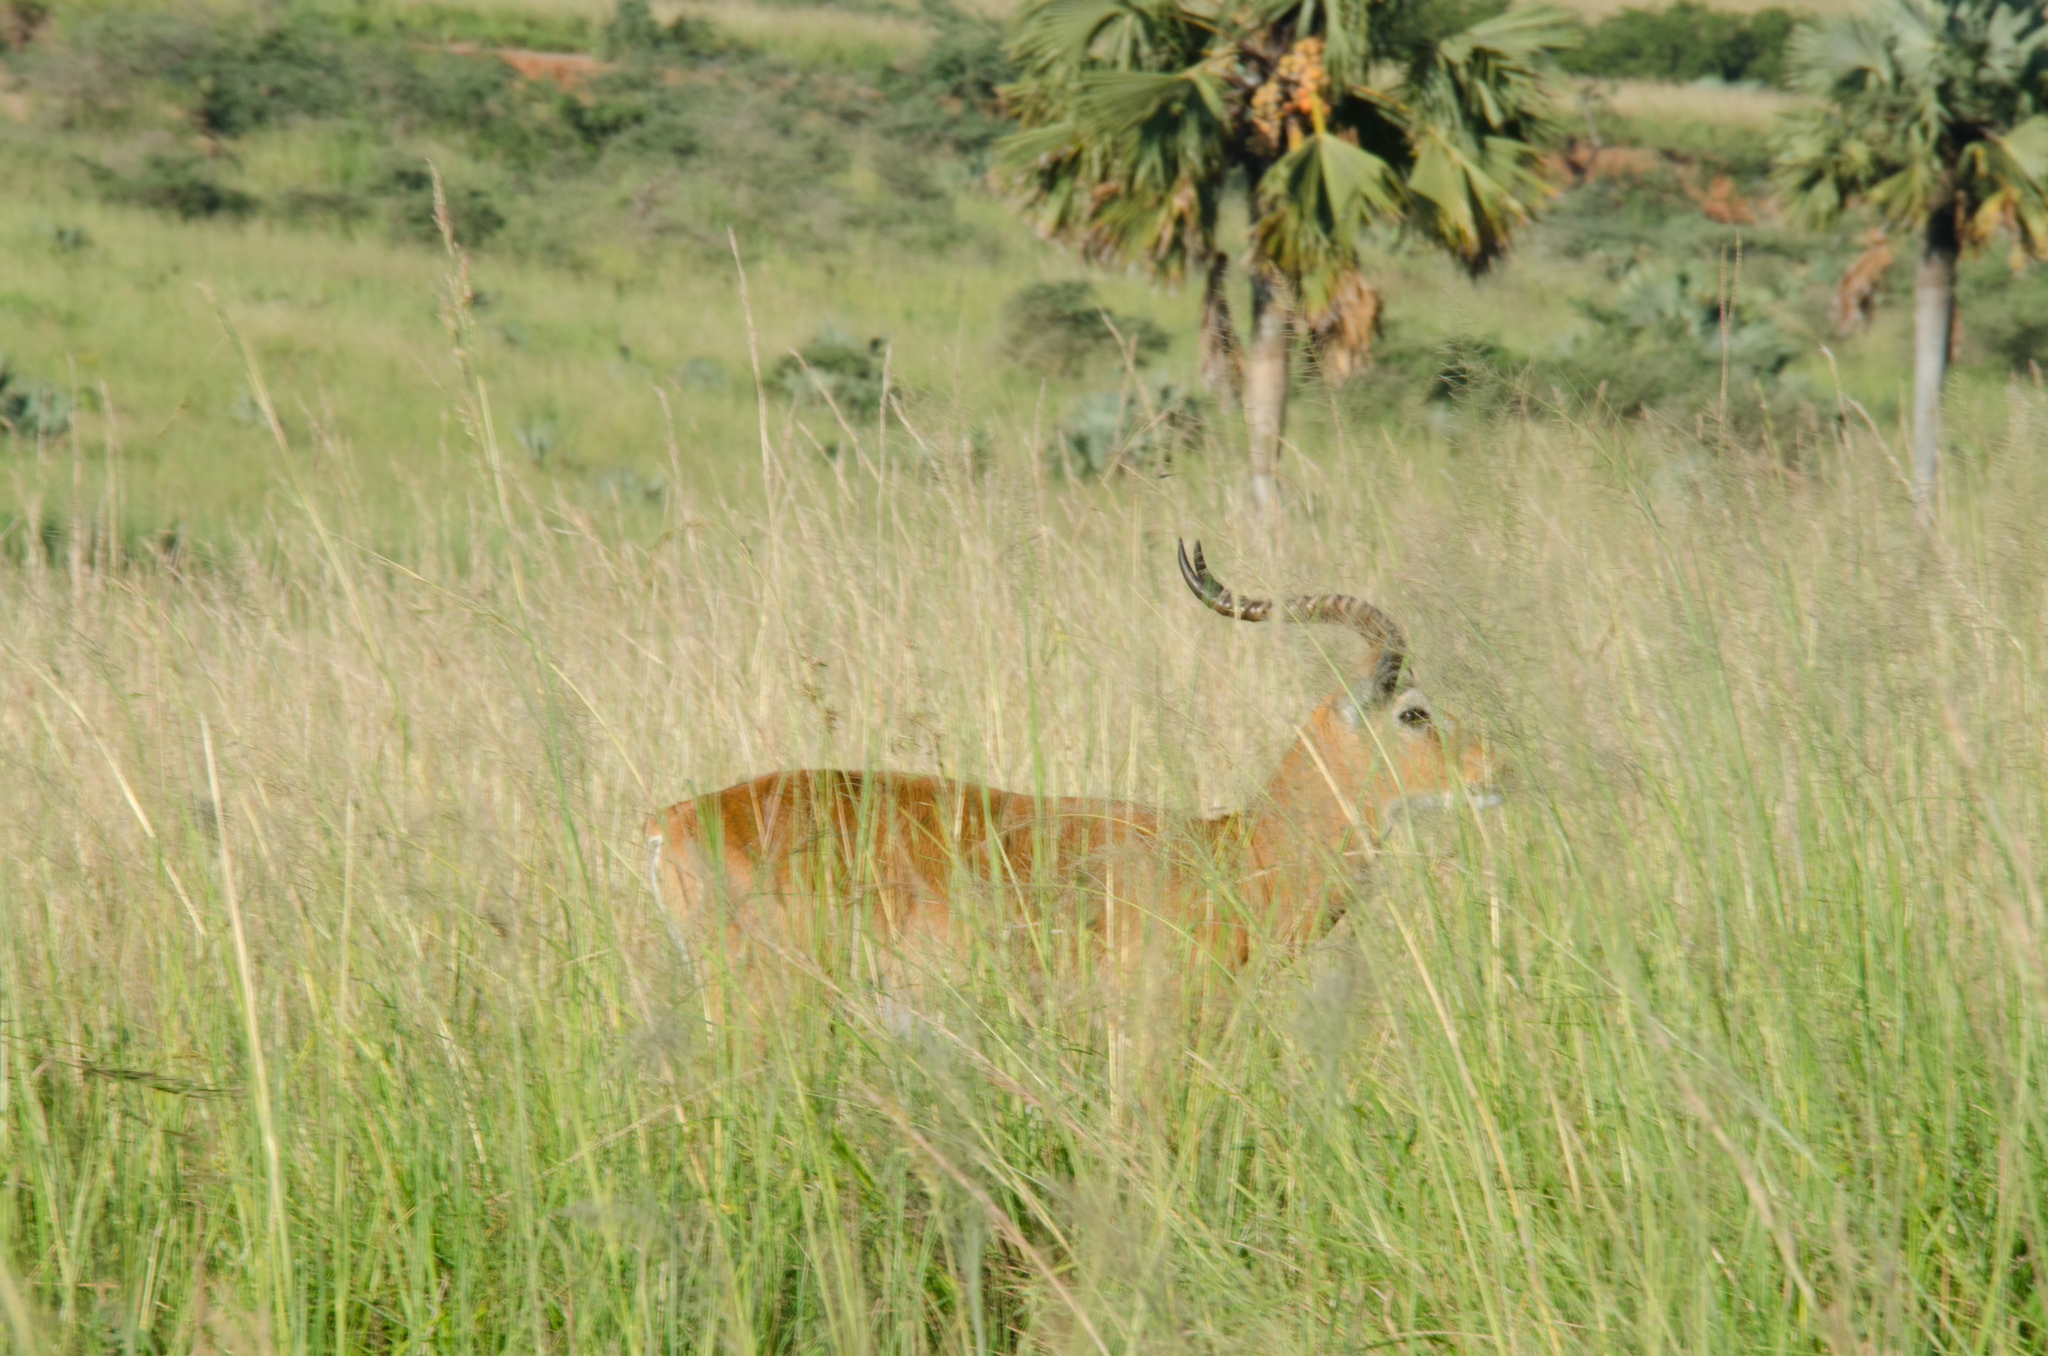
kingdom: Animalia
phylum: Chordata
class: Mammalia
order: Artiodactyla
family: Bovidae
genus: Kobus
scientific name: Kobus kob
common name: Kob
